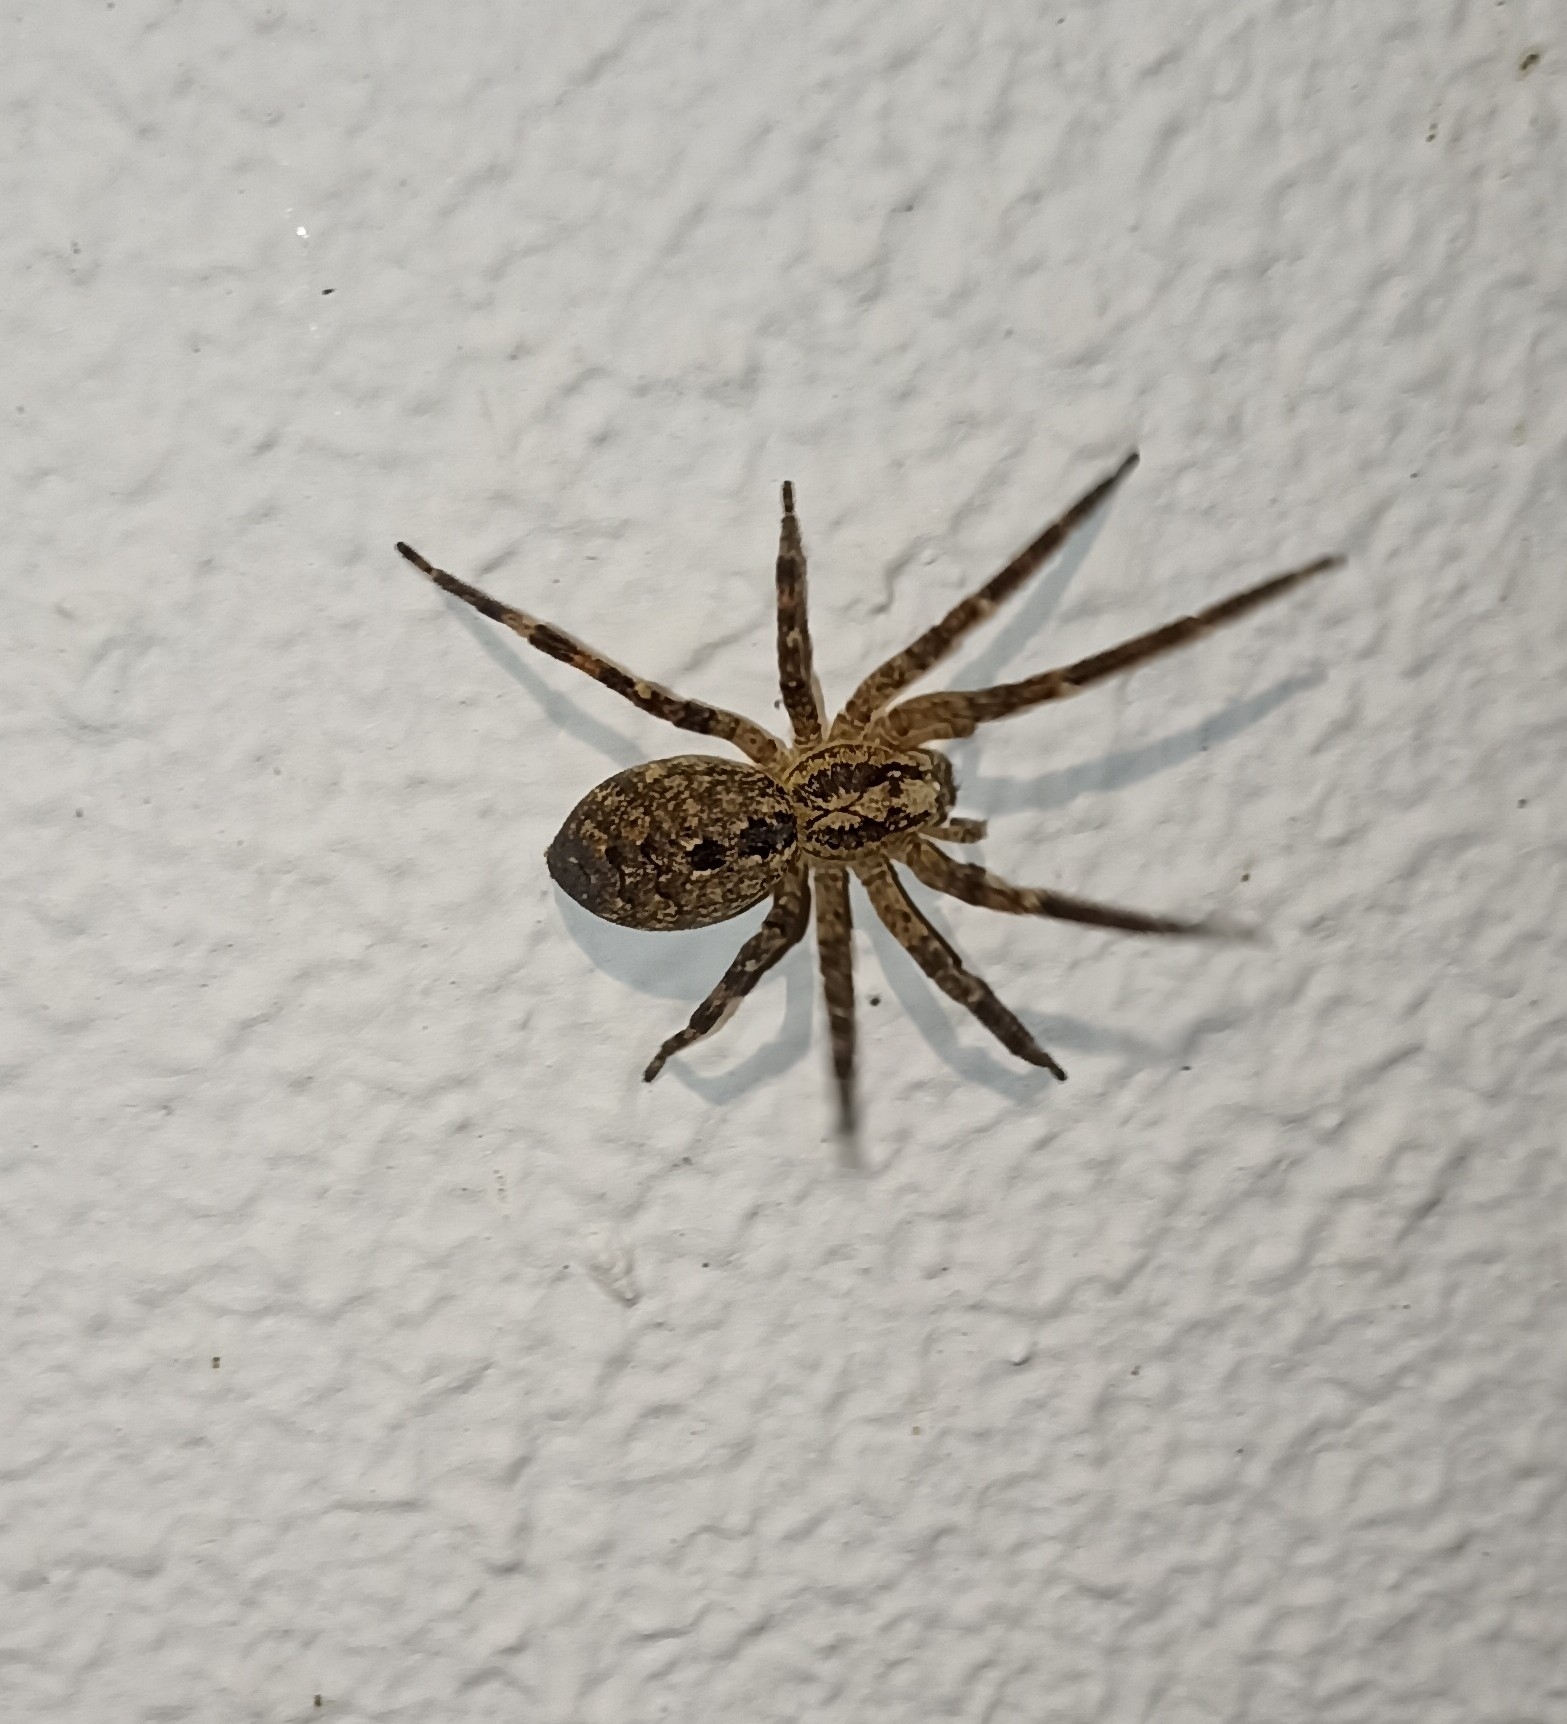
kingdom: Animalia
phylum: Arthropoda
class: Arachnida
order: Araneae
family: Zoropsidae
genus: Zoropsis
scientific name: Zoropsis spinimana
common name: Zoropsid spider
